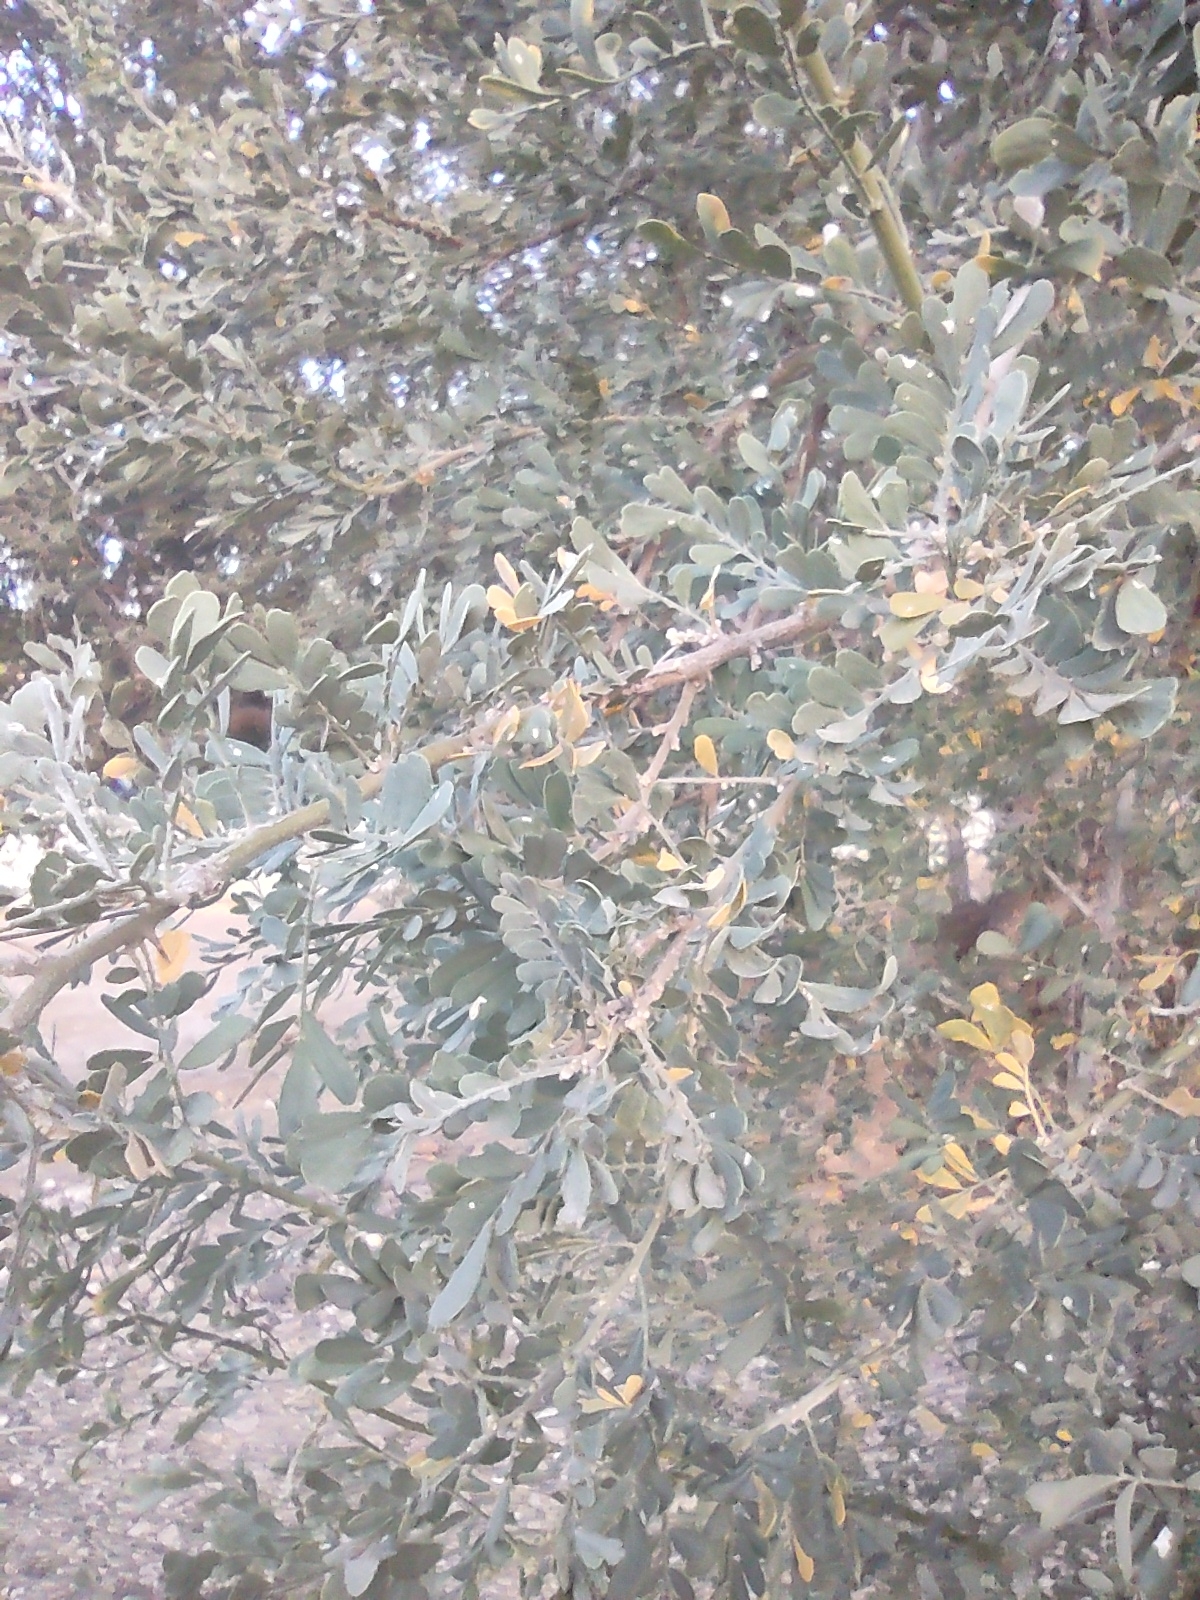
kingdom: Plantae
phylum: Tracheophyta
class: Magnoliopsida
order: Fabales
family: Fabaceae
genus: Olneya
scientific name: Olneya tesota
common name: Desert ironwood
